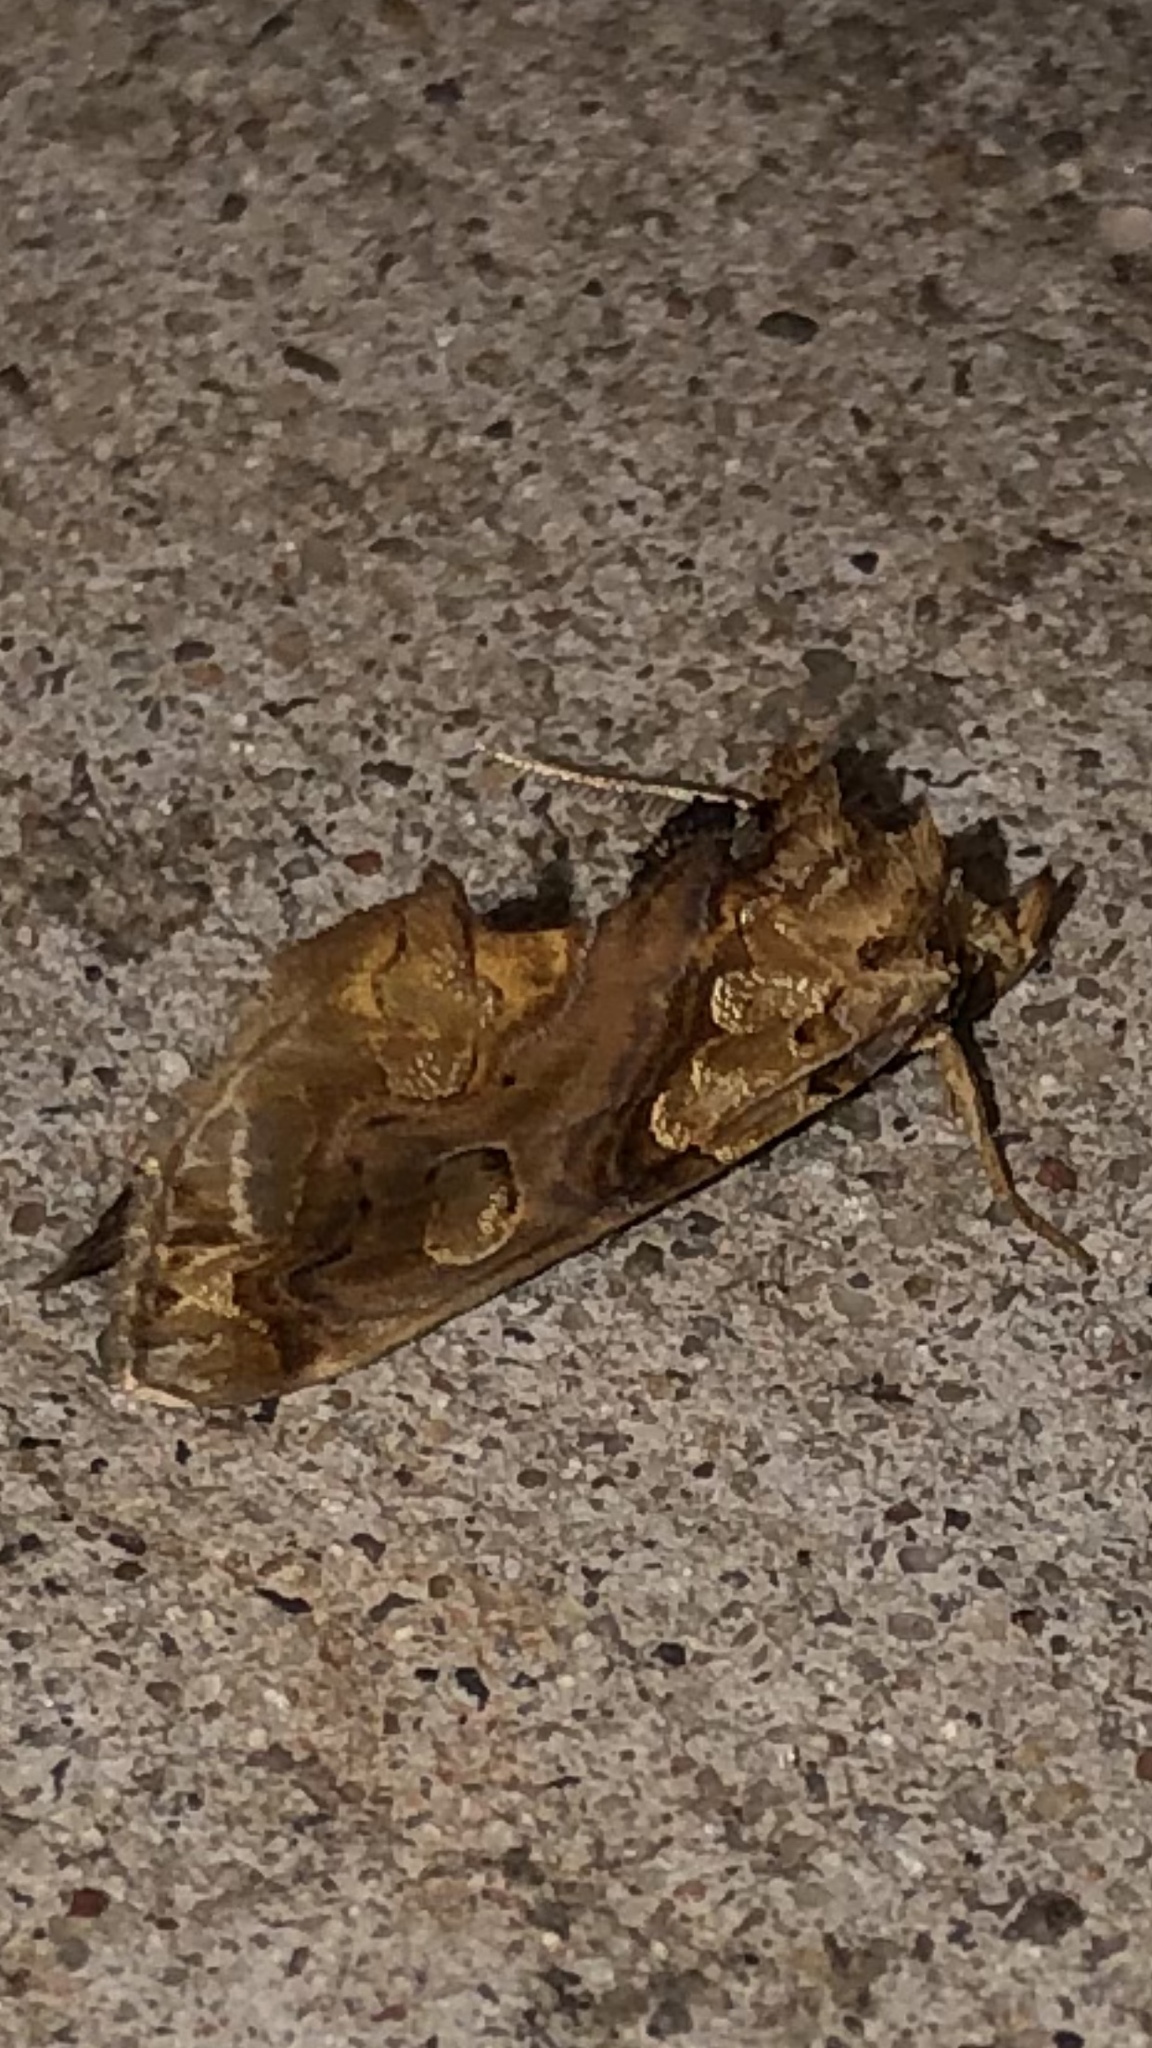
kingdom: Animalia
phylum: Arthropoda
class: Insecta
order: Lepidoptera
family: Erebidae
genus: Plusiodonta
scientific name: Plusiodonta compressipalpis
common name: Moonseed moth
